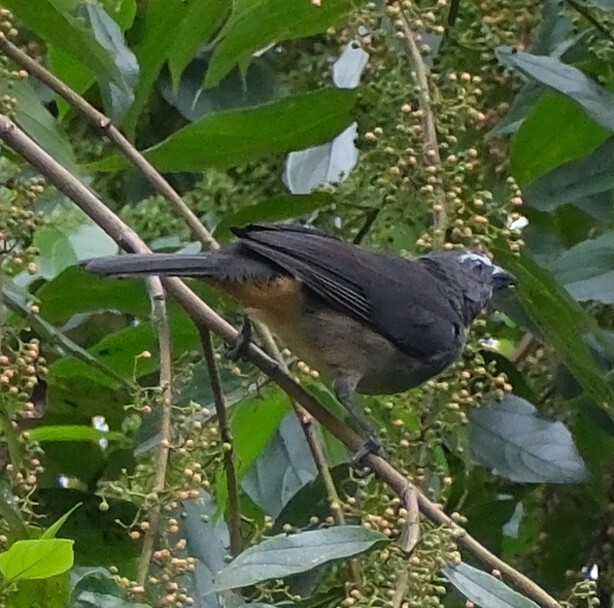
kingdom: Animalia
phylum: Chordata
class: Aves
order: Passeriformes
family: Thraupidae
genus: Saltator
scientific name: Saltator coerulescens
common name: Grayish saltator
